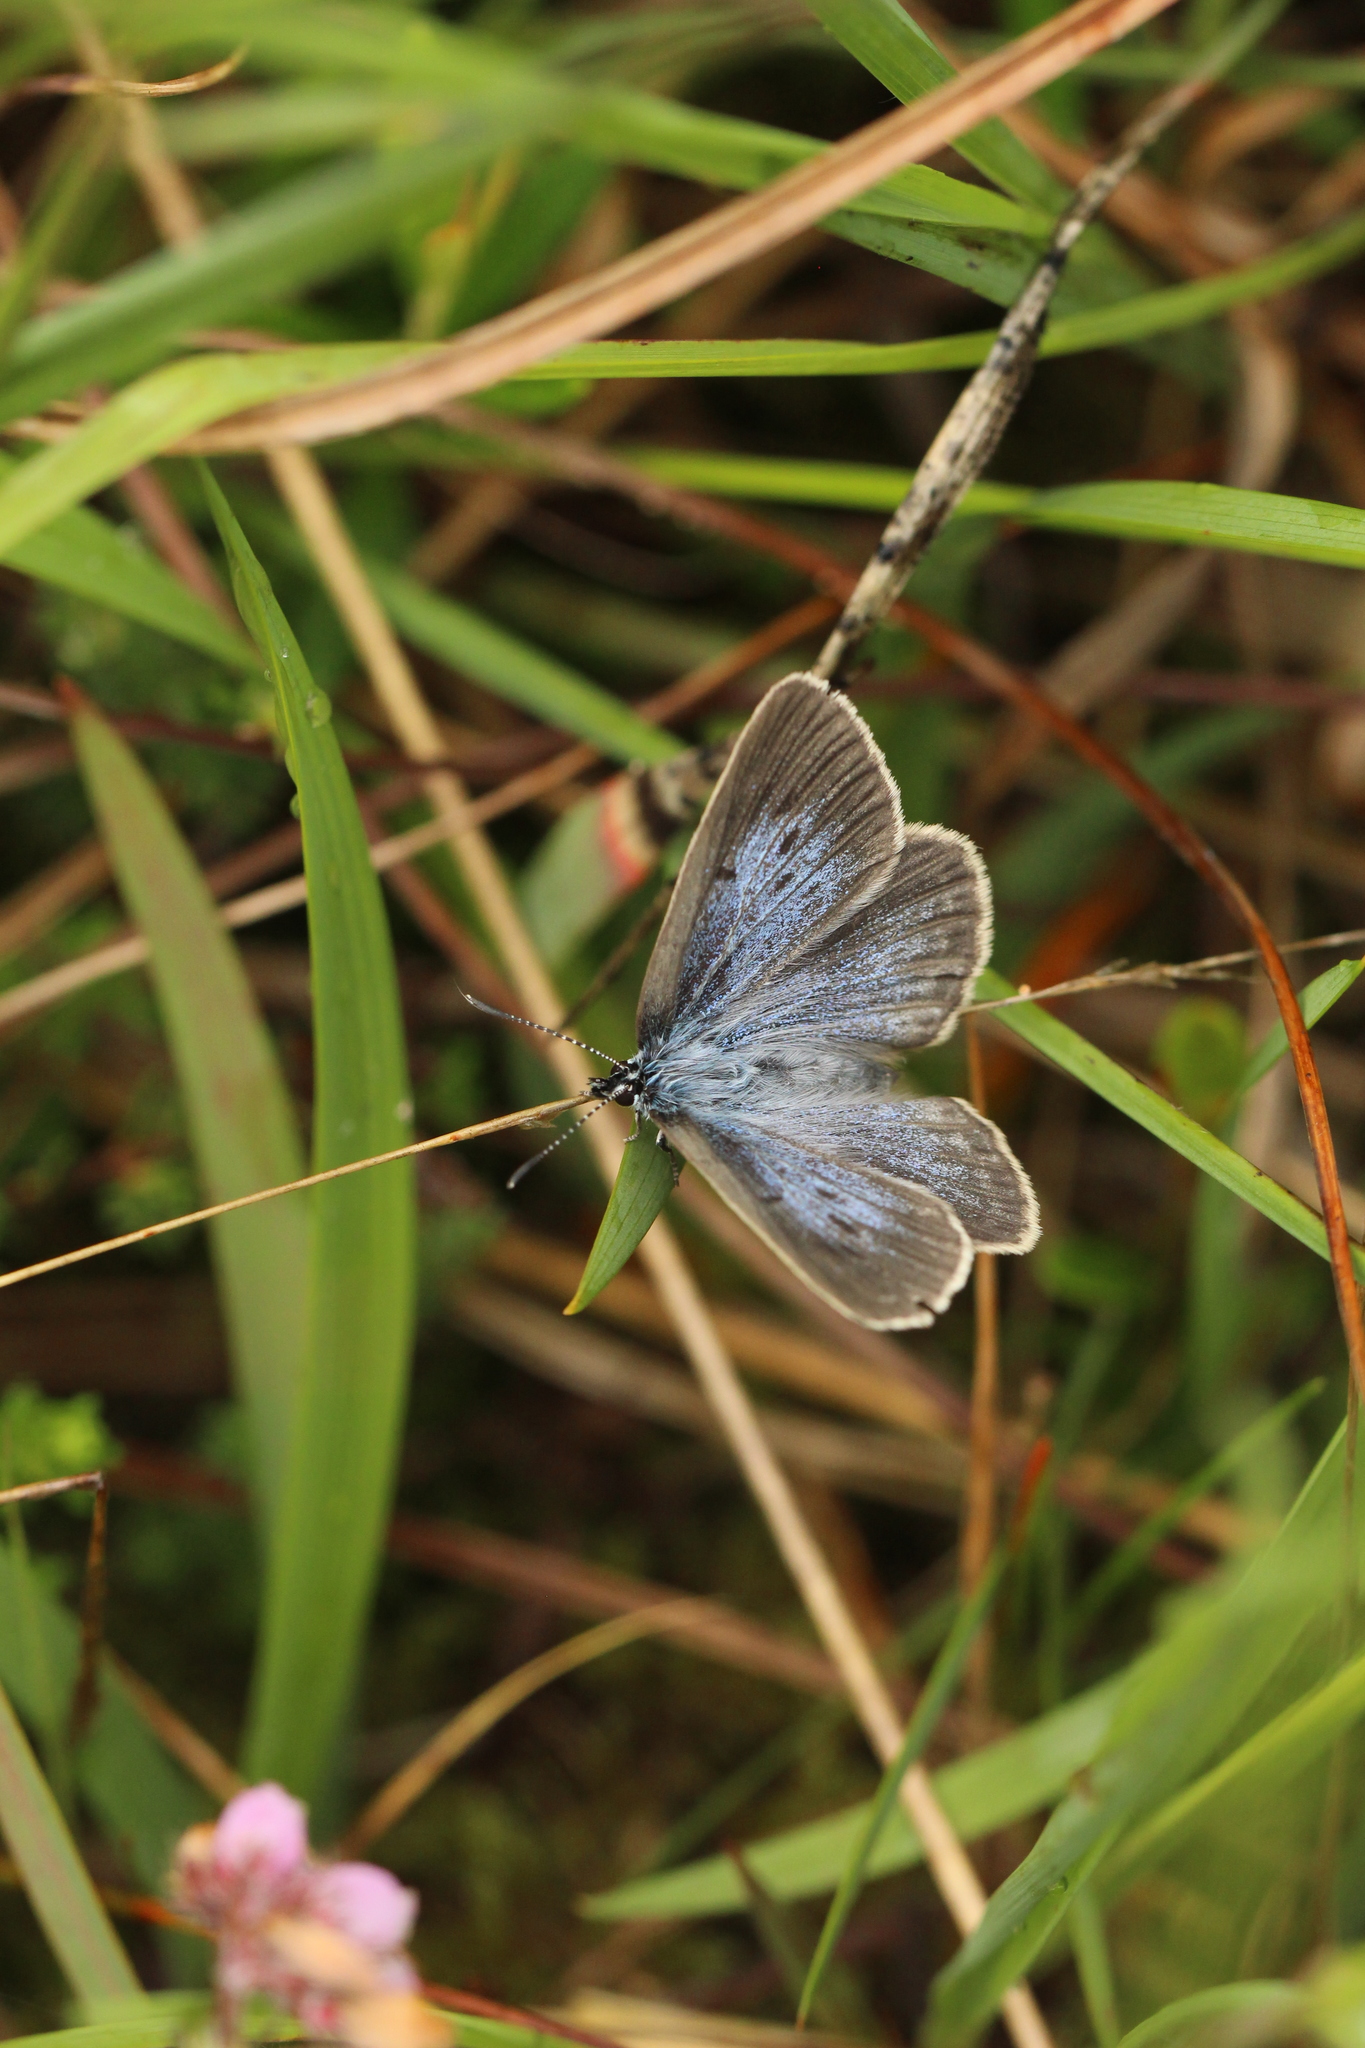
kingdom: Animalia
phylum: Arthropoda
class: Insecta
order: Lepidoptera
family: Lycaenidae
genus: Maculinea
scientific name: Maculinea alcon
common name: Alcon blue
